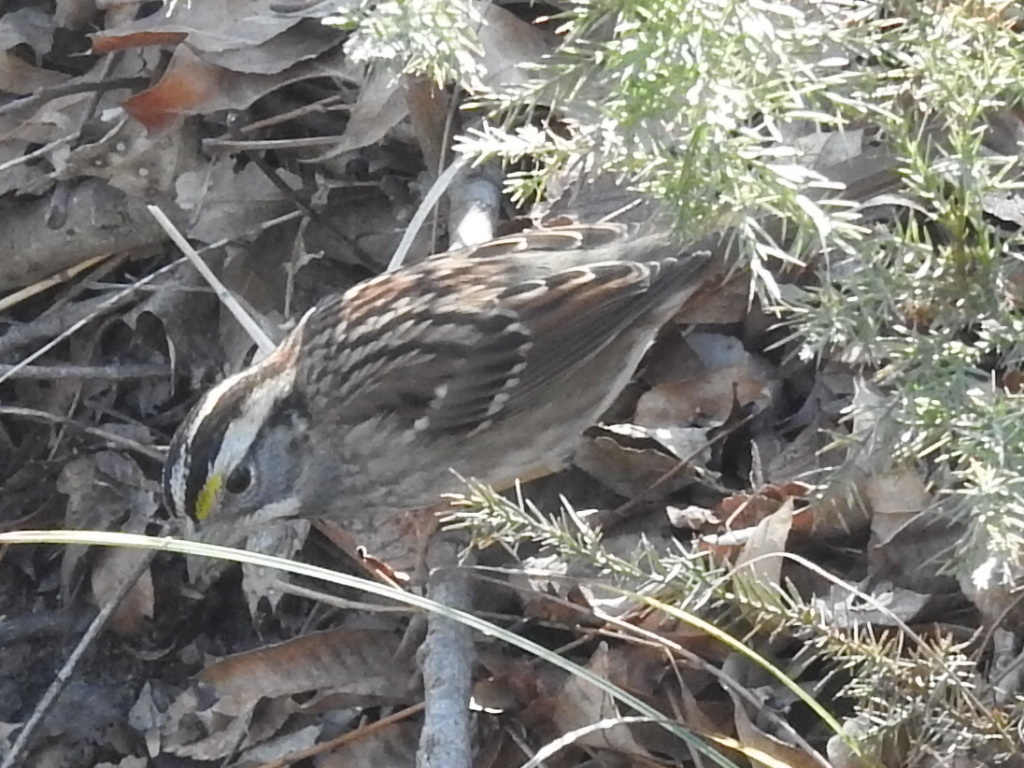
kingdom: Animalia
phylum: Chordata
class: Aves
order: Passeriformes
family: Passerellidae
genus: Zonotrichia
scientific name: Zonotrichia albicollis
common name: White-throated sparrow
